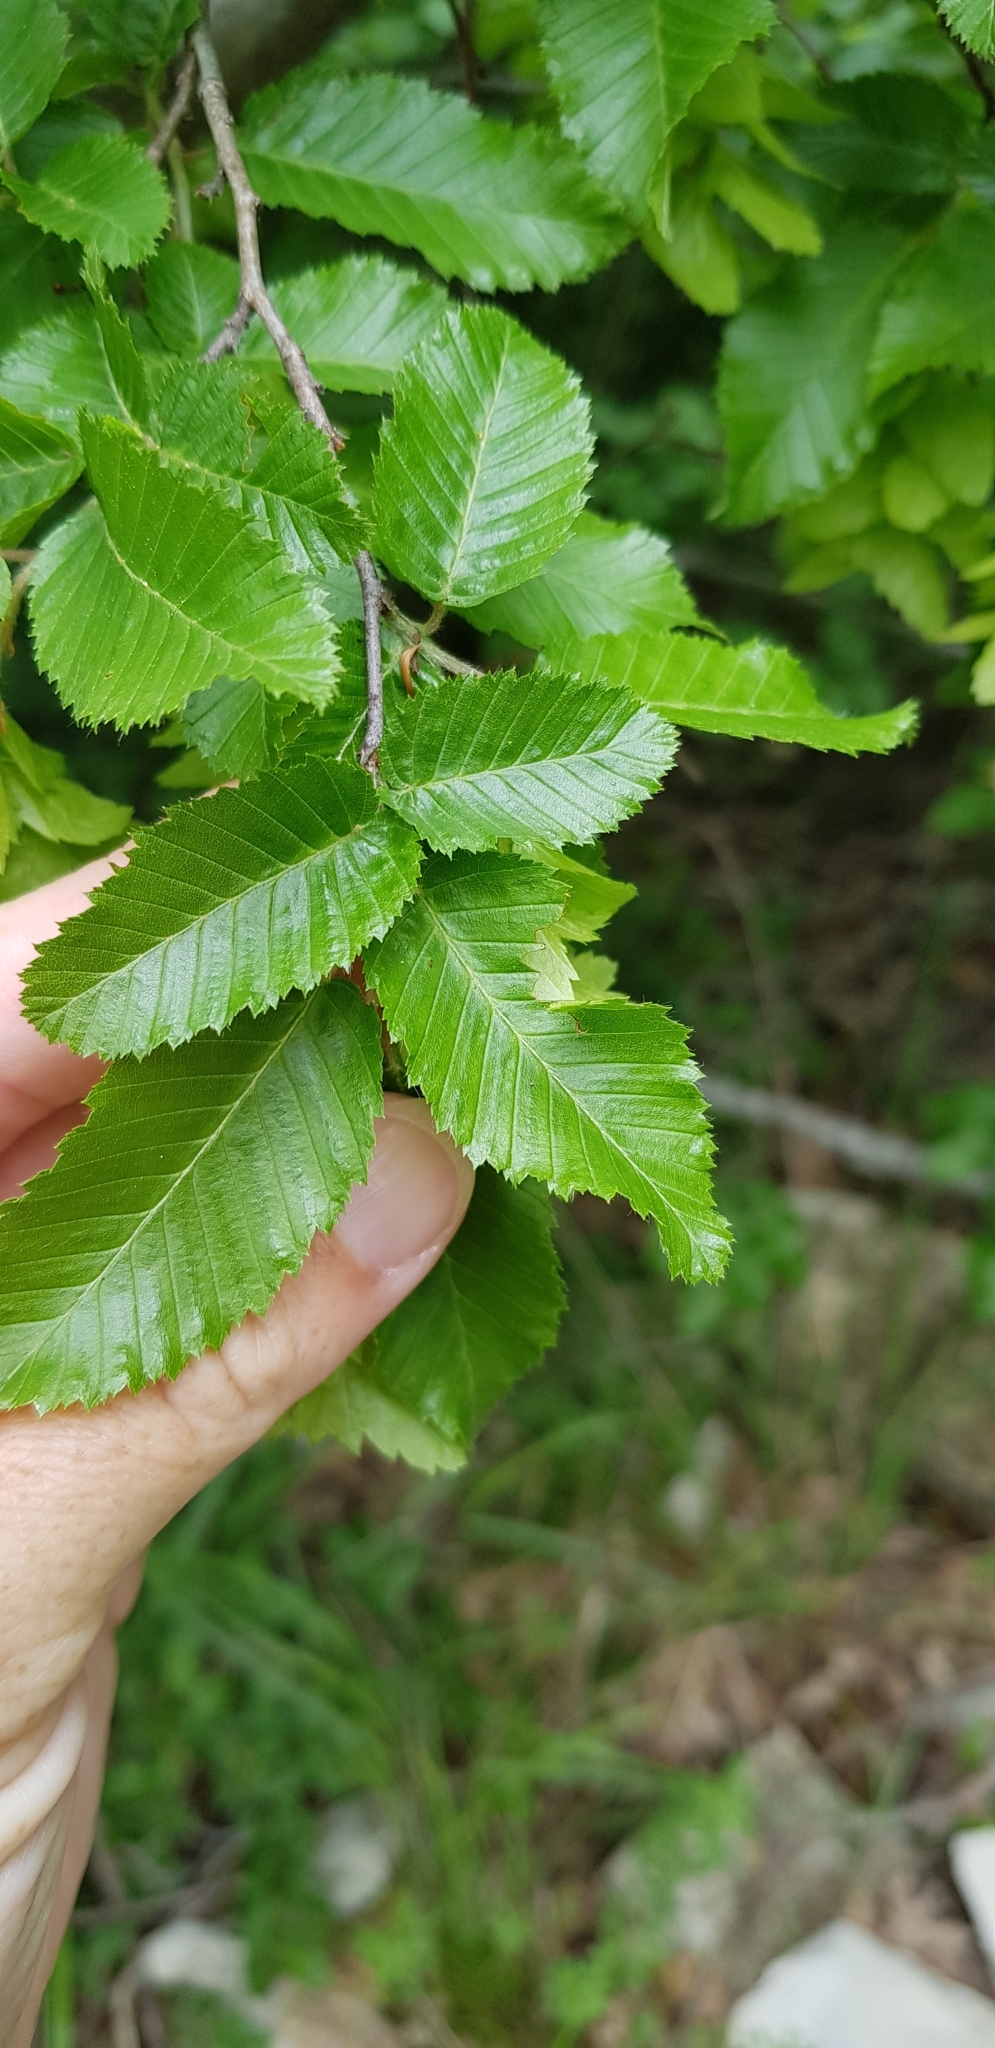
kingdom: Plantae
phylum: Tracheophyta
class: Magnoliopsida
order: Fagales
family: Betulaceae
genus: Carpinus
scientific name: Carpinus orientalis
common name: Eastern hornbeam
